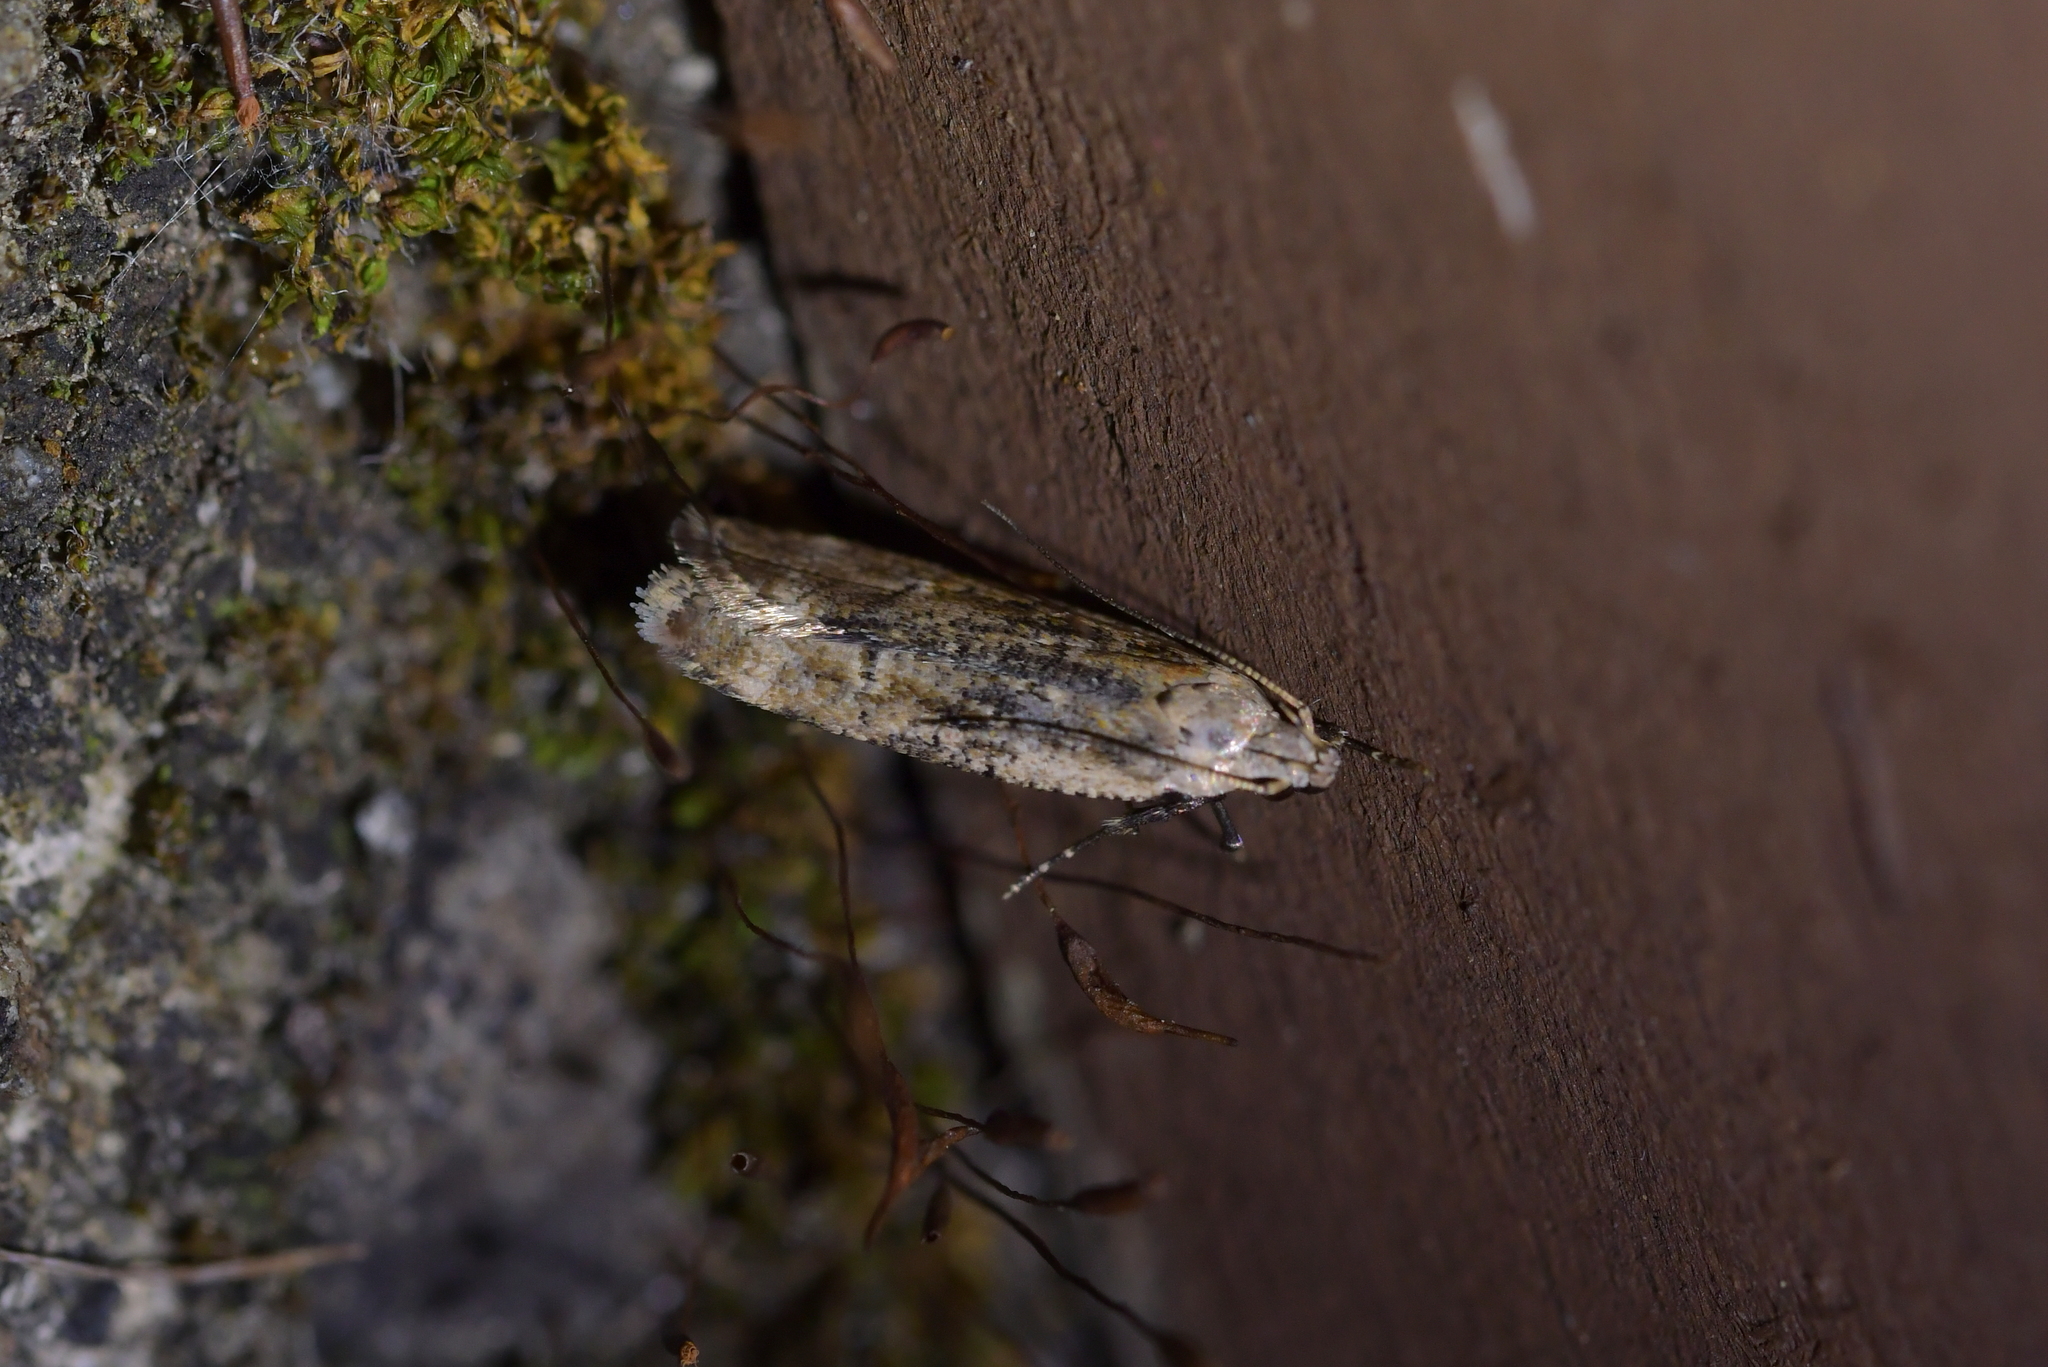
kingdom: Animalia
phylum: Arthropoda
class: Insecta
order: Lepidoptera
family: Gelechiidae
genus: Anisoplaca
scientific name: Anisoplaca achyrota
